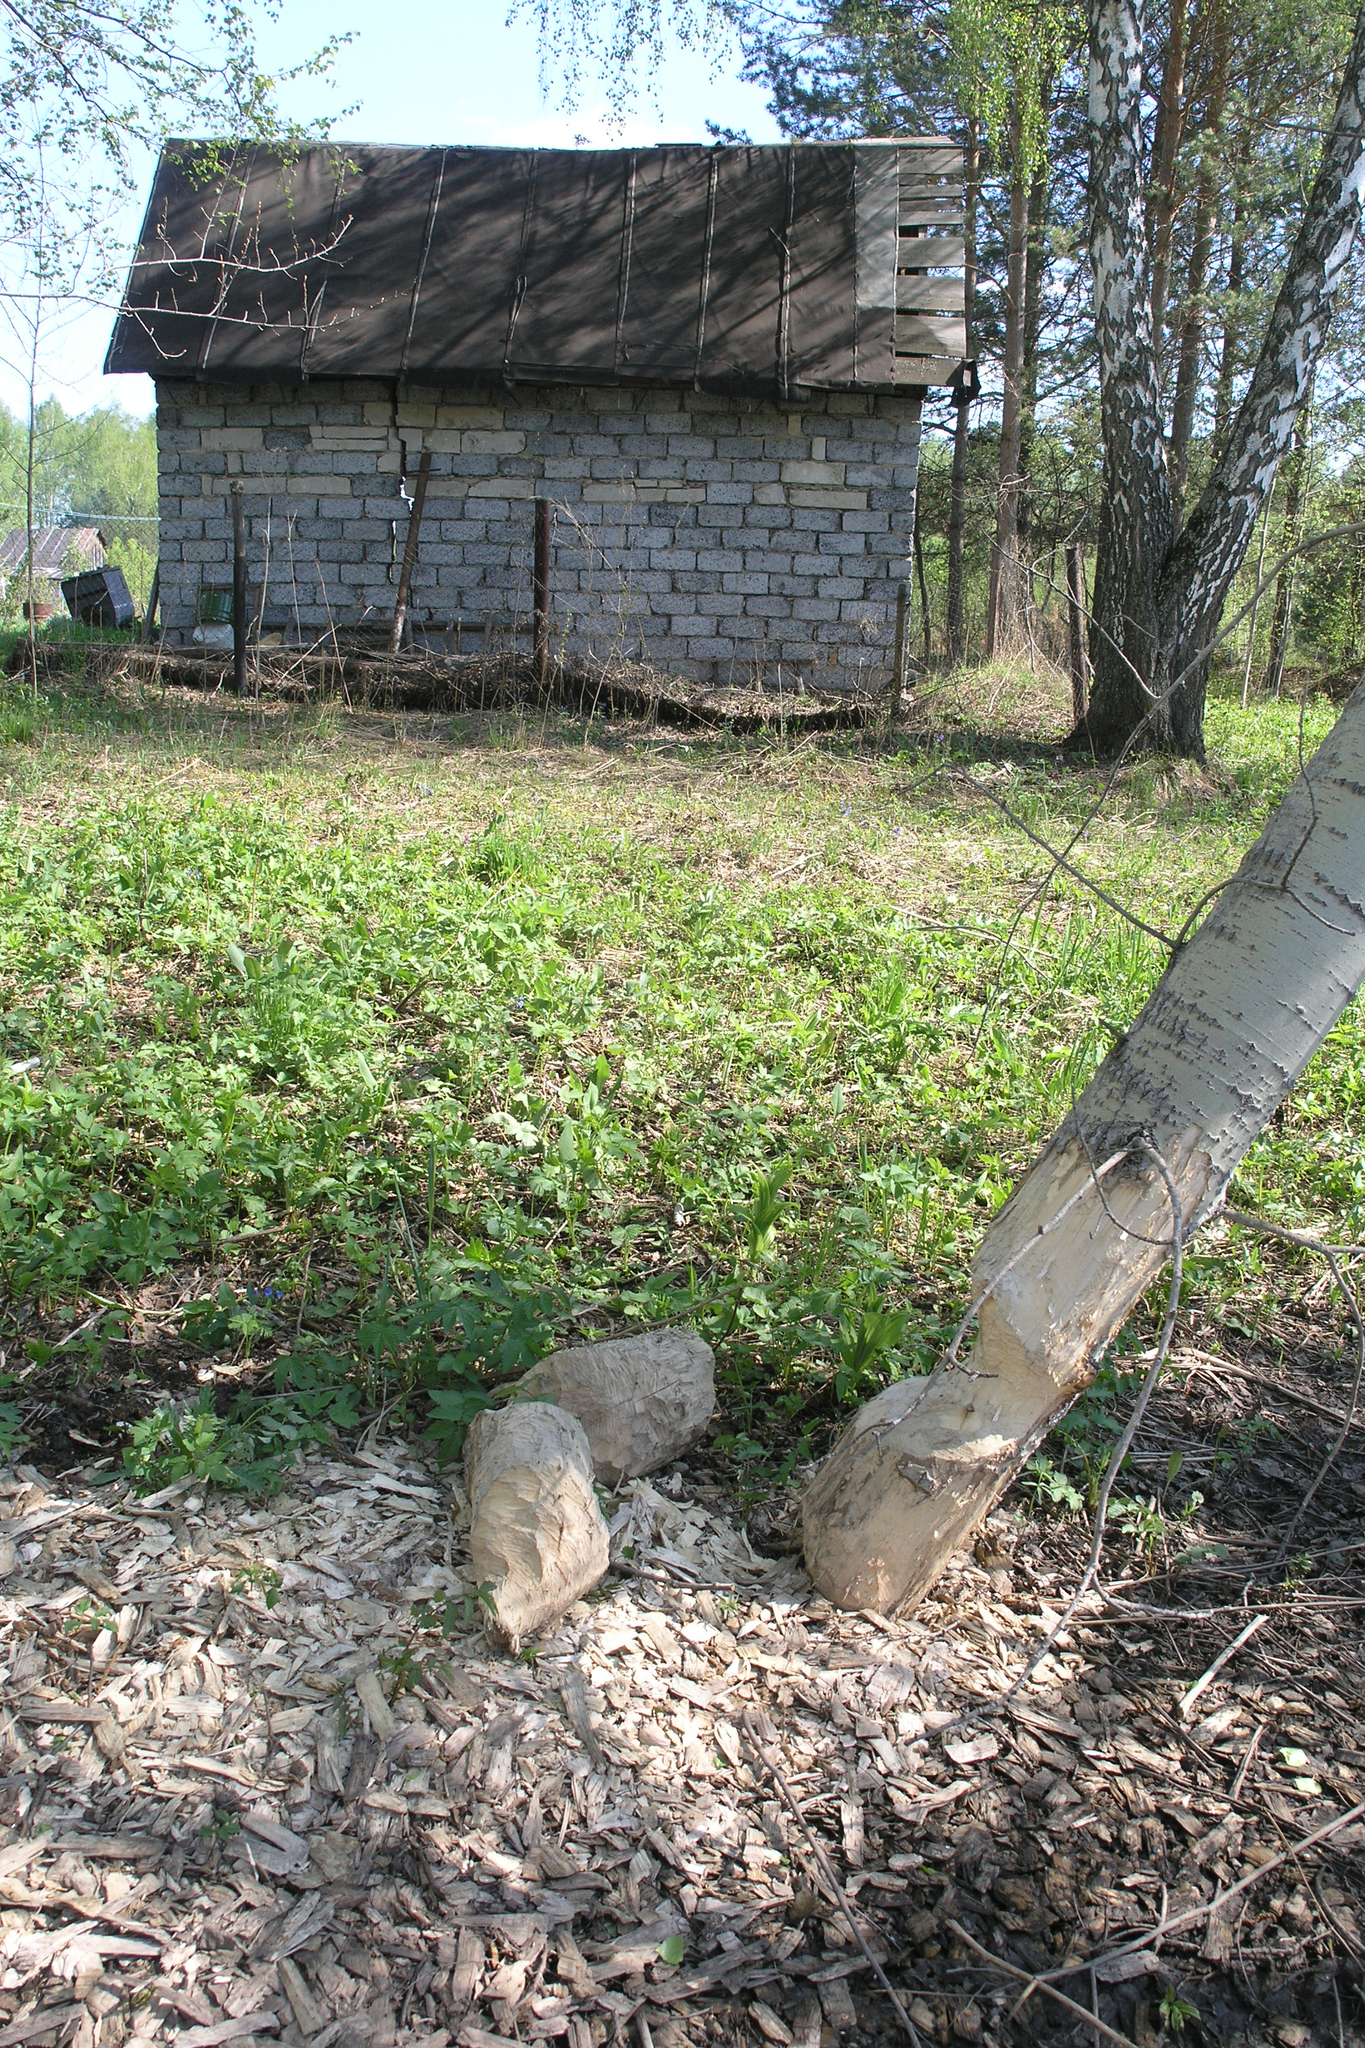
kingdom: Animalia
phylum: Chordata
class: Mammalia
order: Rodentia
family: Castoridae
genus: Castor
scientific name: Castor fiber
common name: Eurasian beaver
